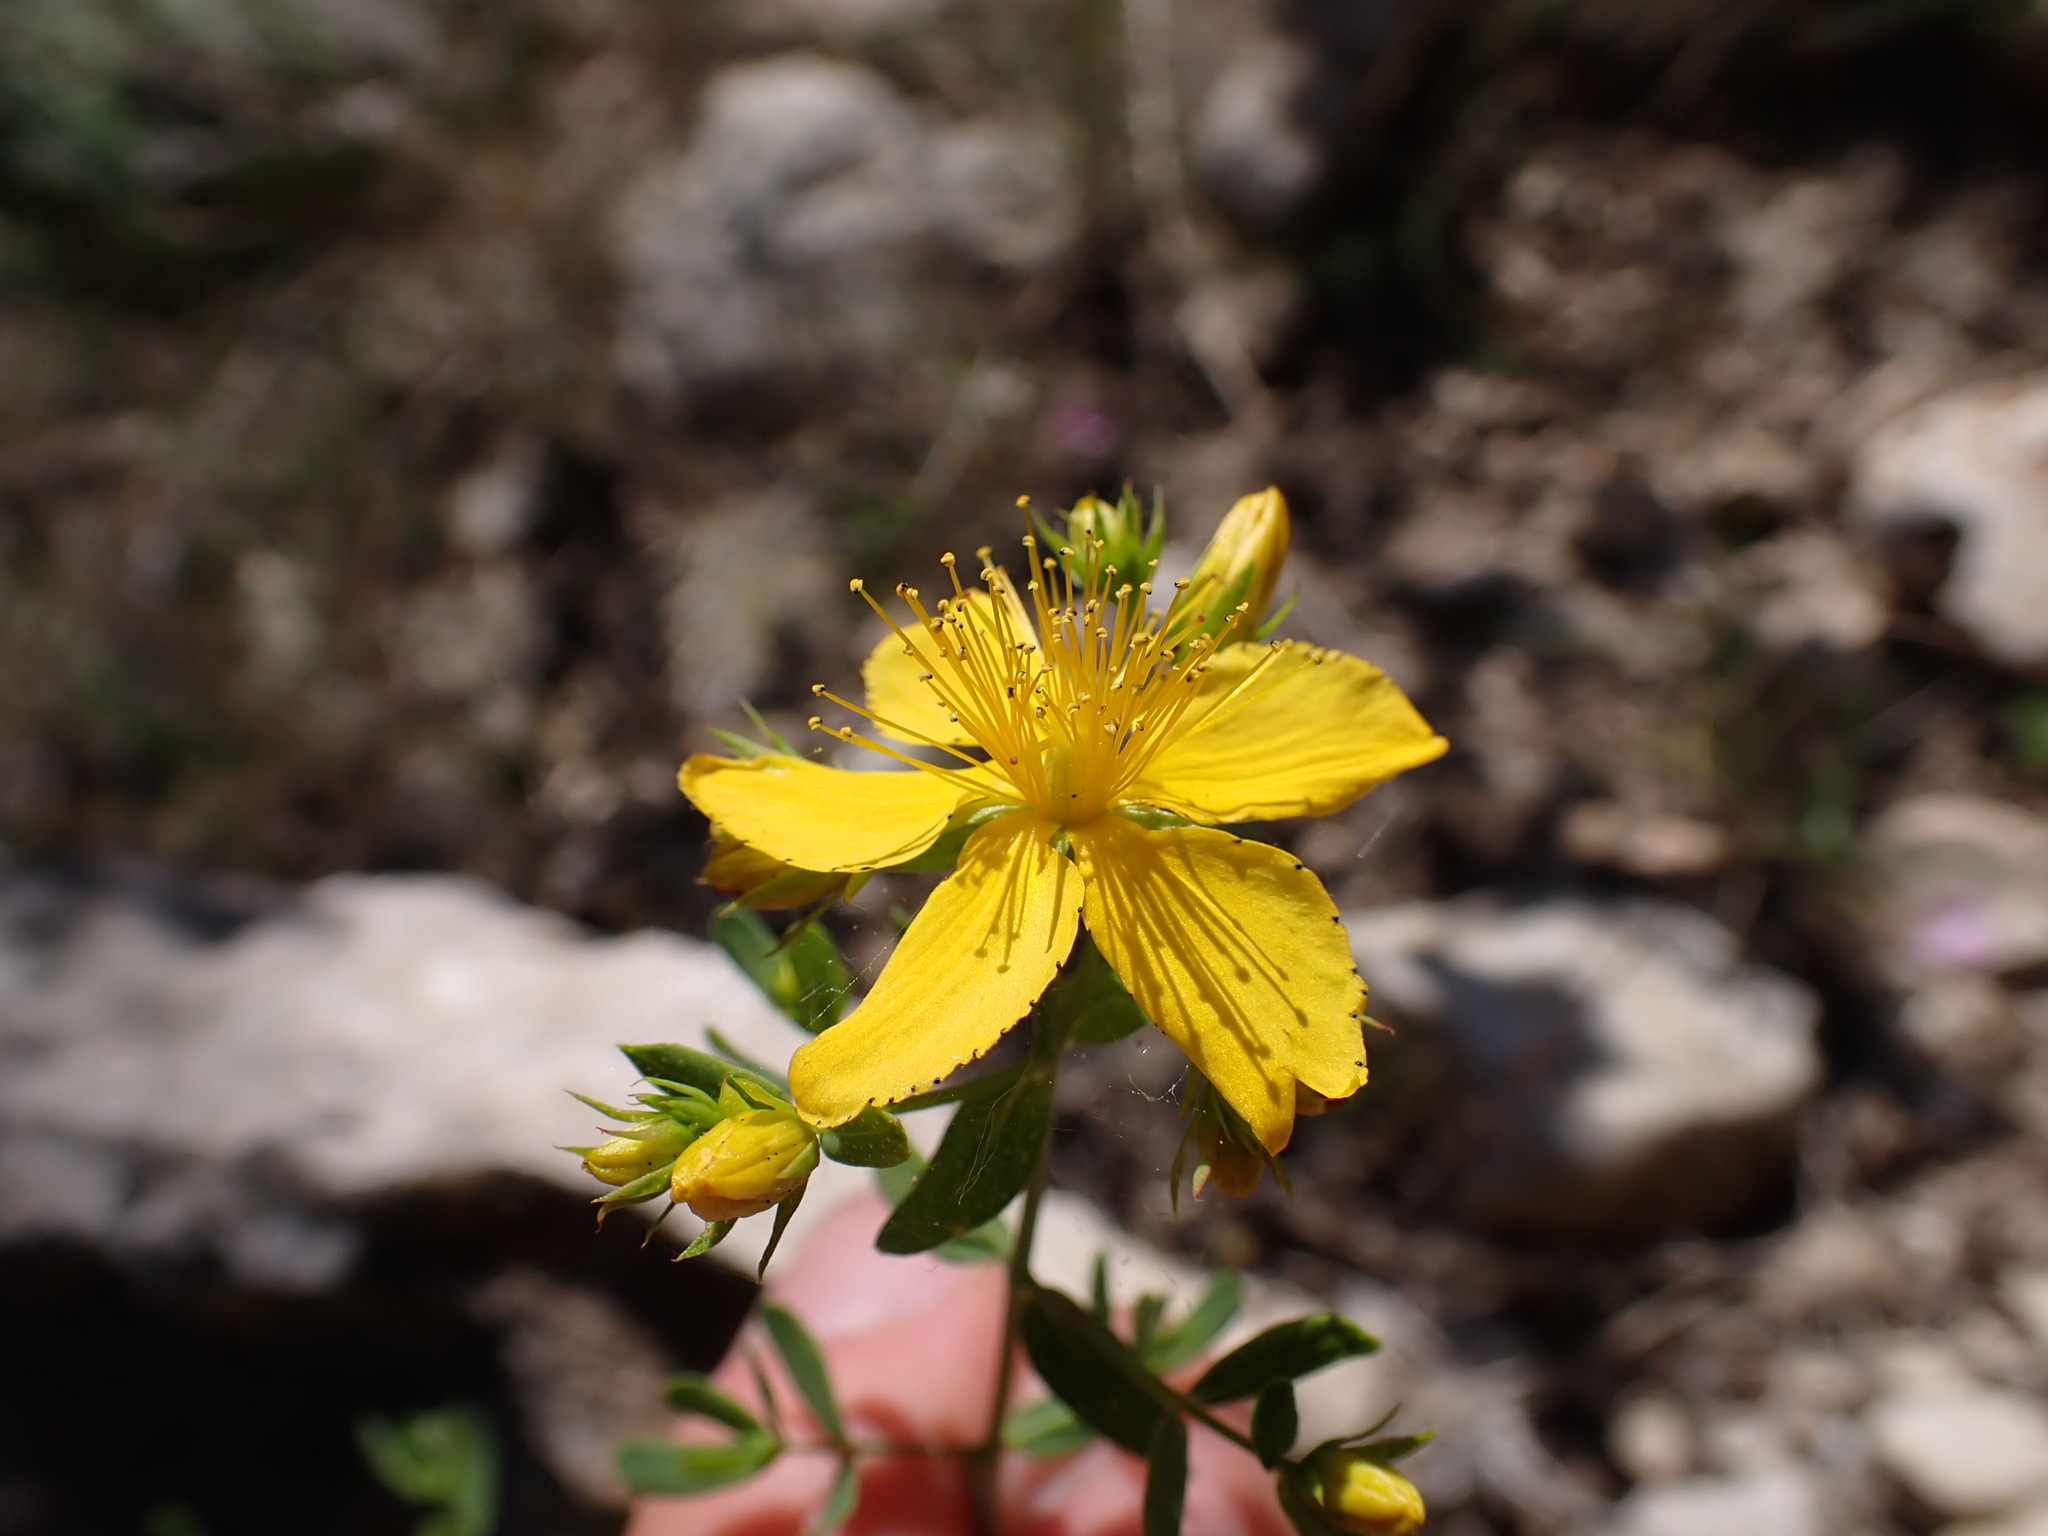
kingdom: Plantae
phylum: Tracheophyta
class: Magnoliopsida
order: Malpighiales
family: Hypericaceae
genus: Hypericum
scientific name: Hypericum perforatum
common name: Common st. johnswort
